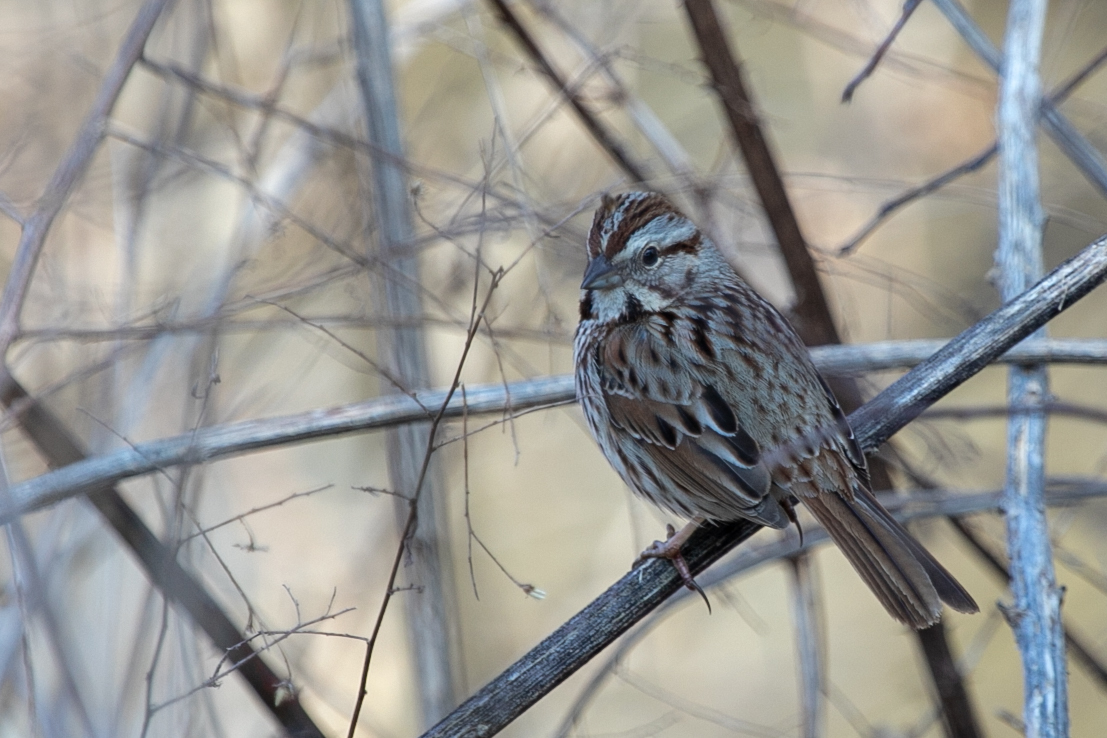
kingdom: Animalia
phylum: Chordata
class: Aves
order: Passeriformes
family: Passerellidae
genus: Melospiza
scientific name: Melospiza melodia
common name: Song sparrow
